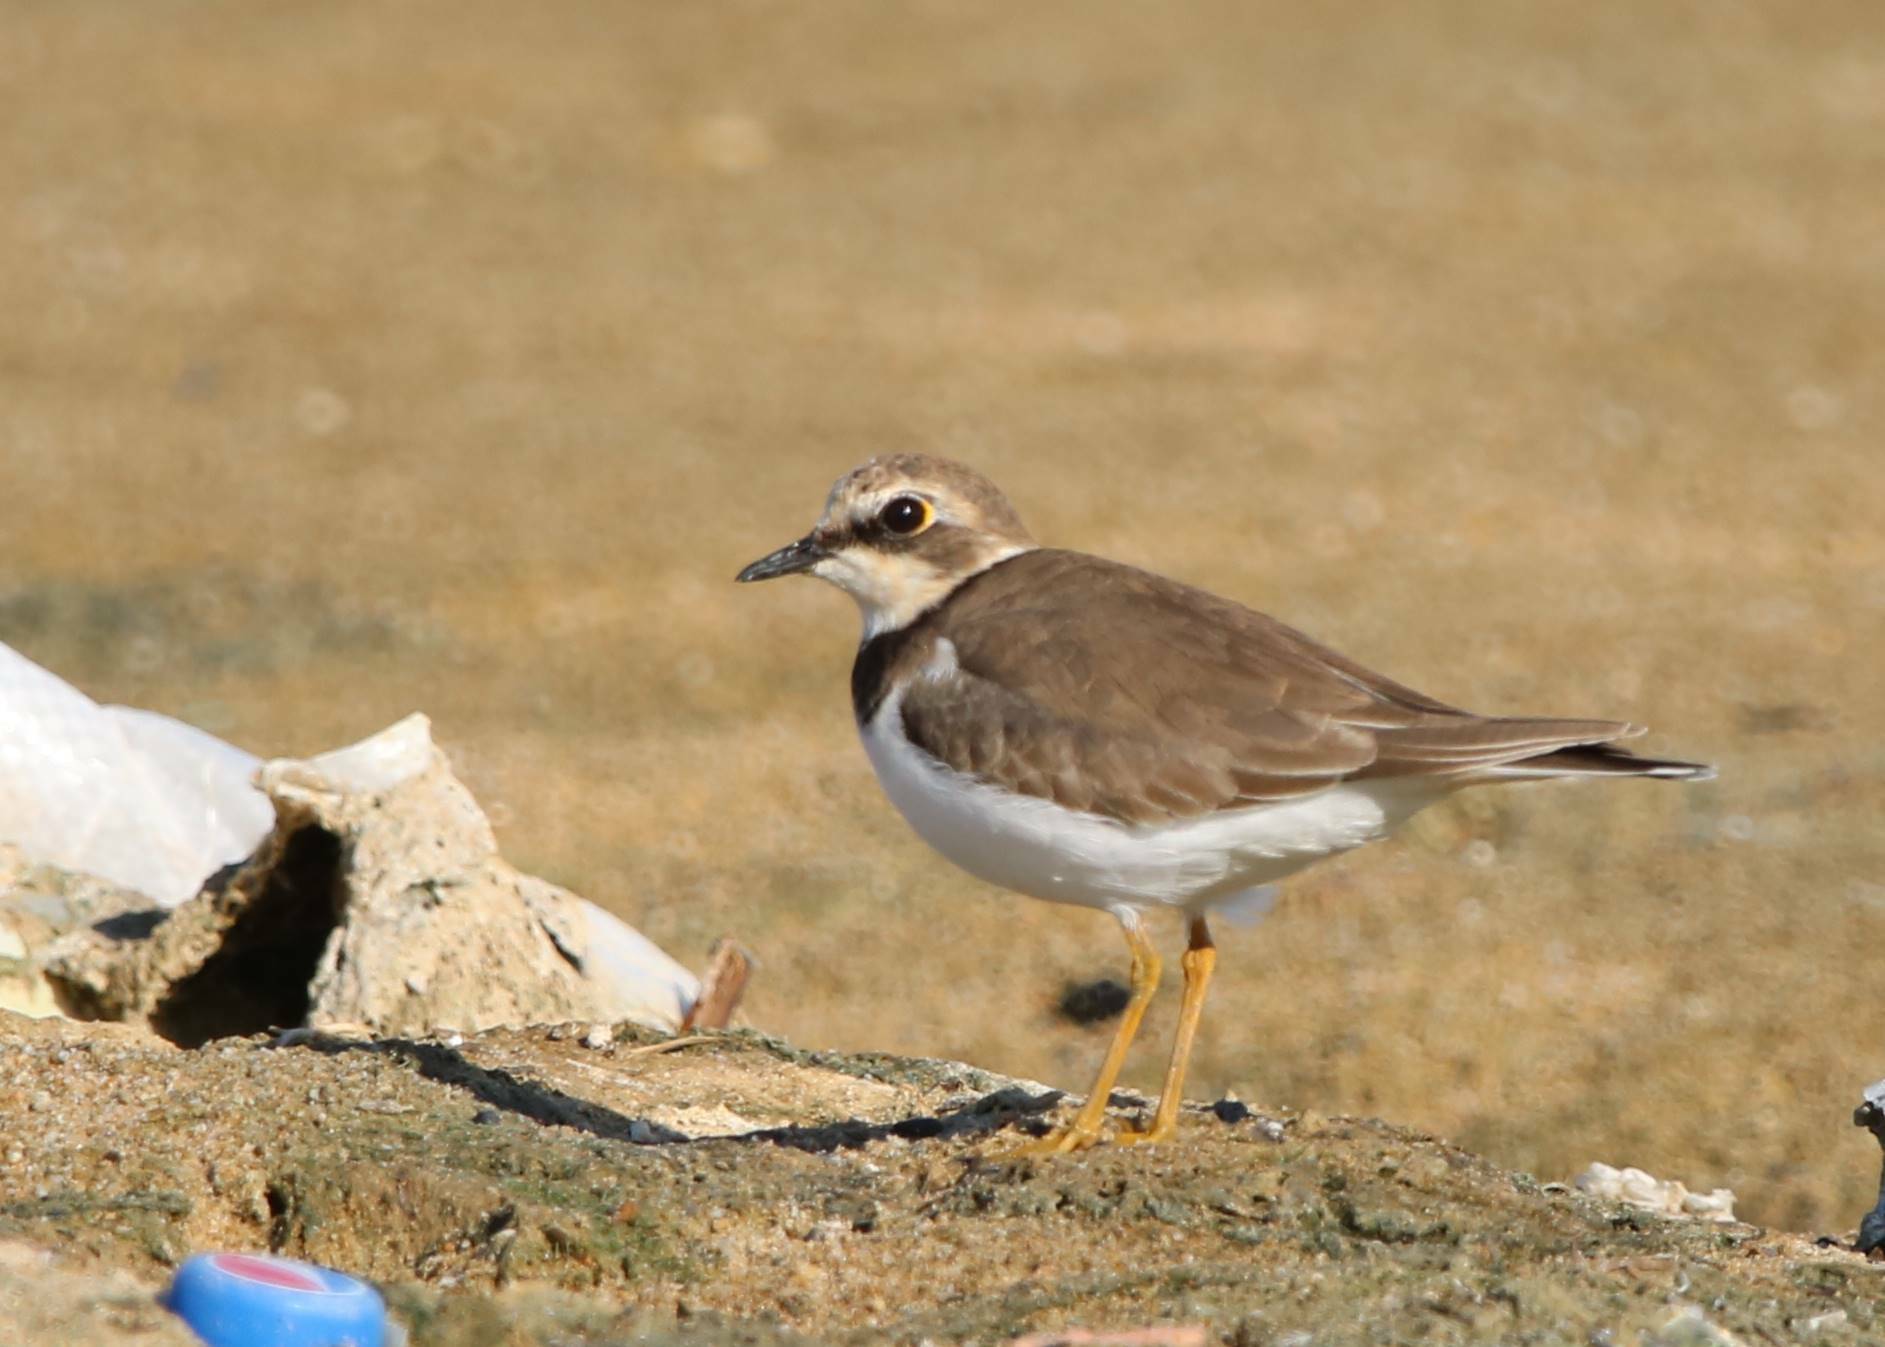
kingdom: Animalia
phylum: Chordata
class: Aves
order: Charadriiformes
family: Charadriidae
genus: Charadrius
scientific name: Charadrius dubius
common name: Little ringed plover
